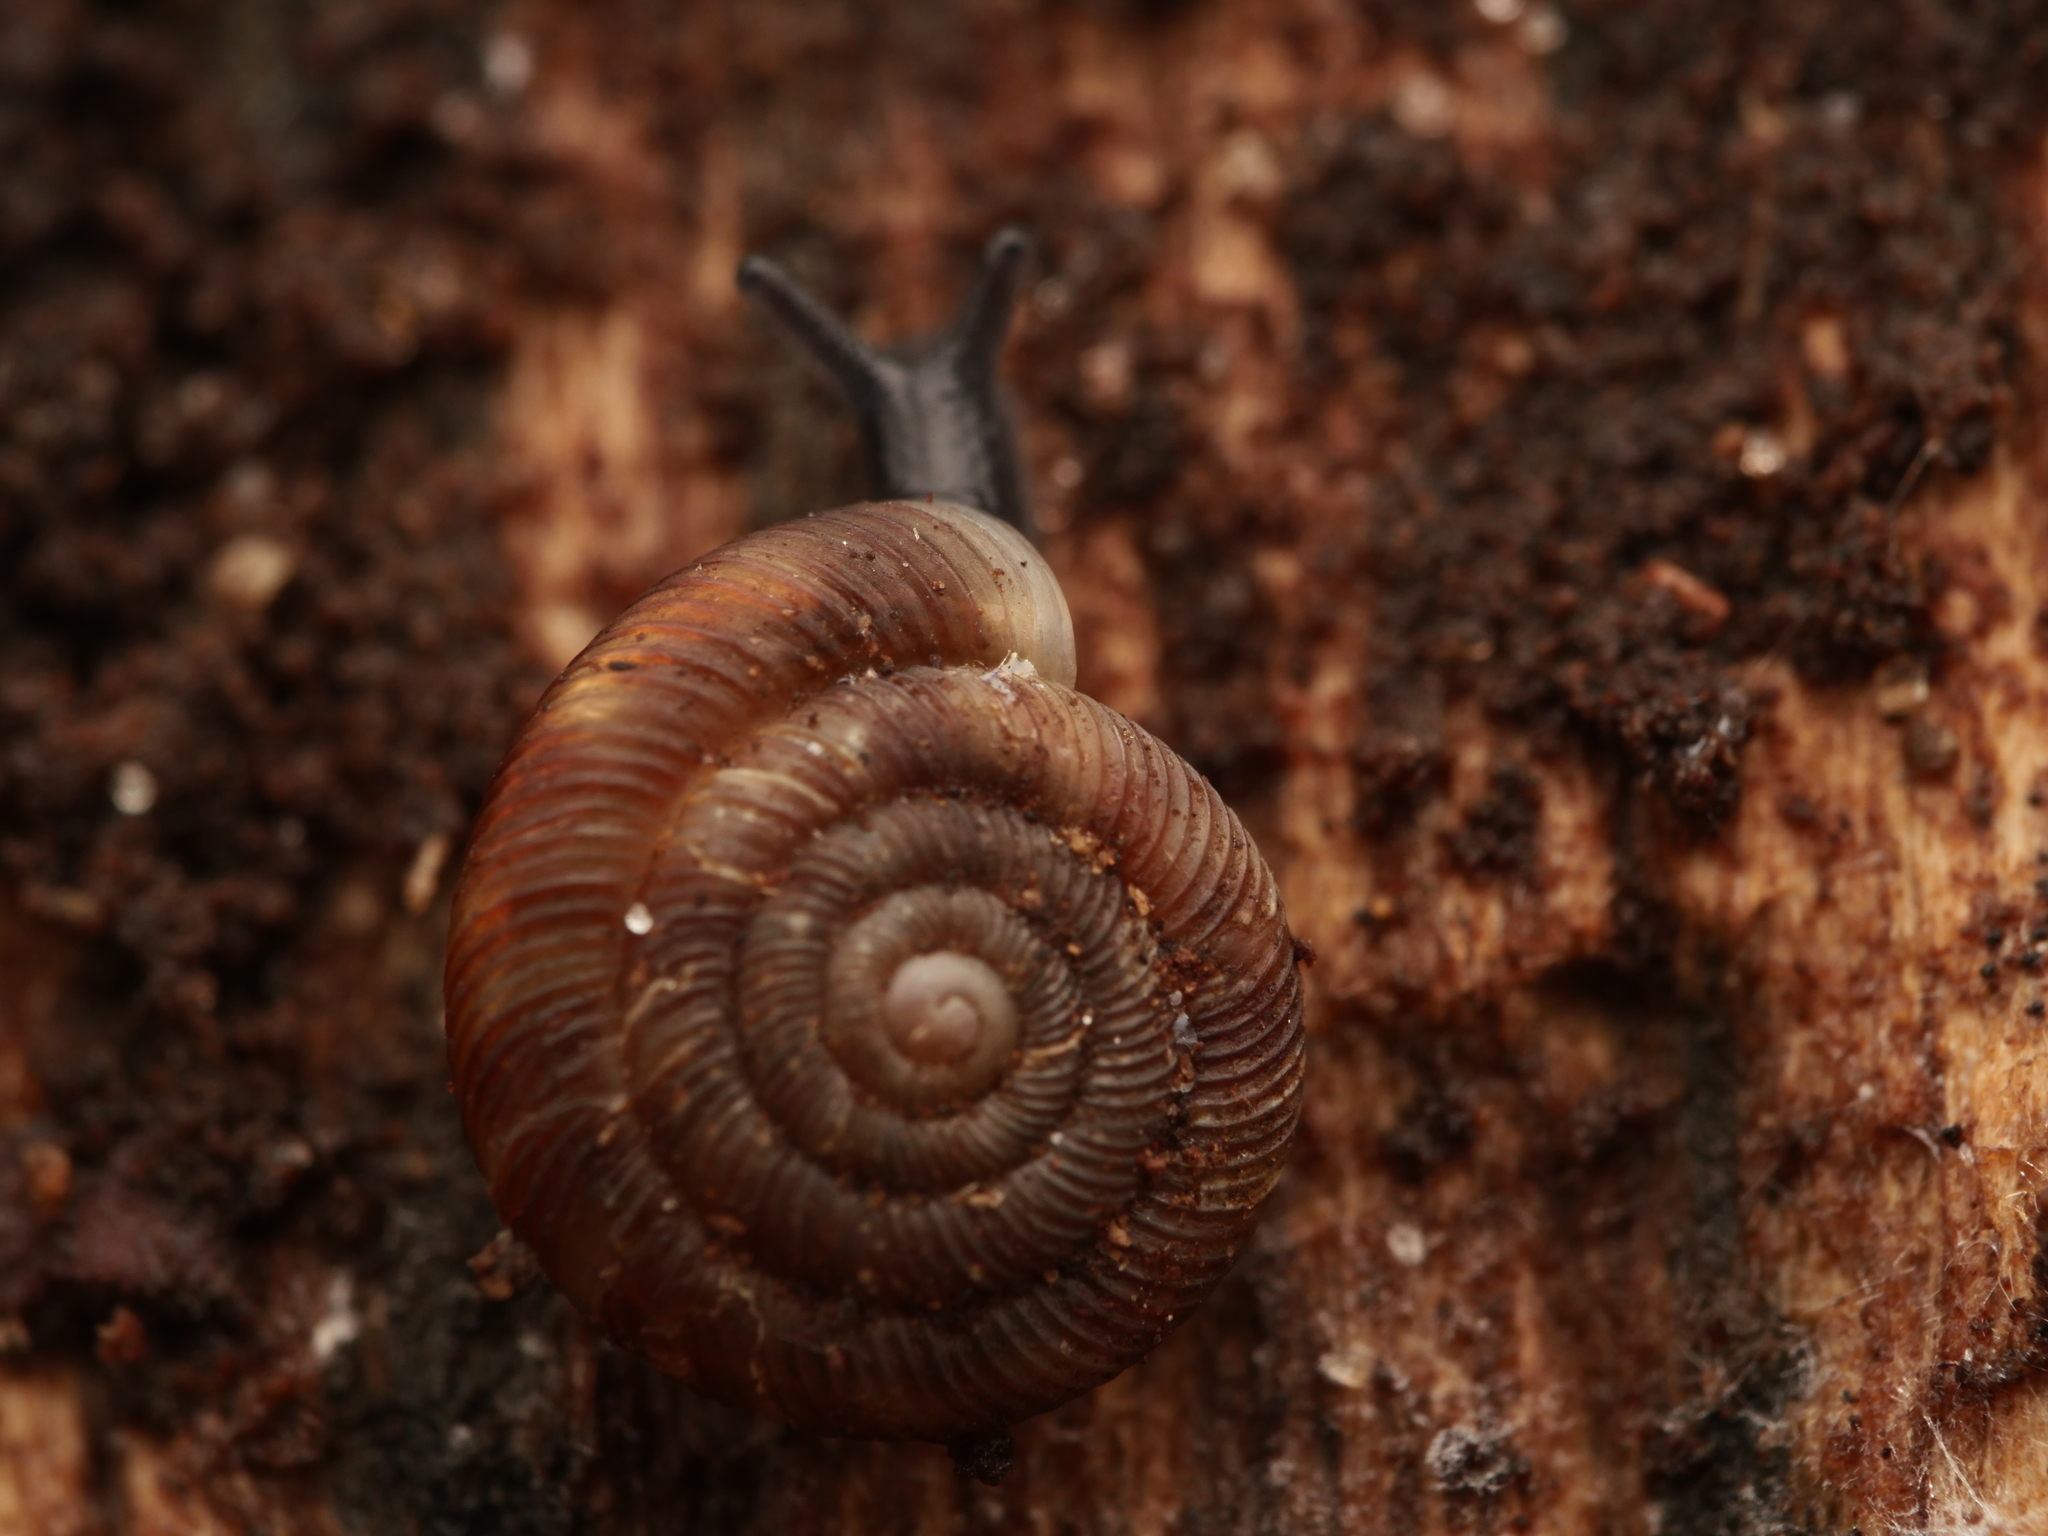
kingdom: Animalia
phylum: Mollusca
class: Gastropoda
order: Stylommatophora
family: Discidae
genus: Discus
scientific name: Discus rotundatus
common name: Rounded snail
